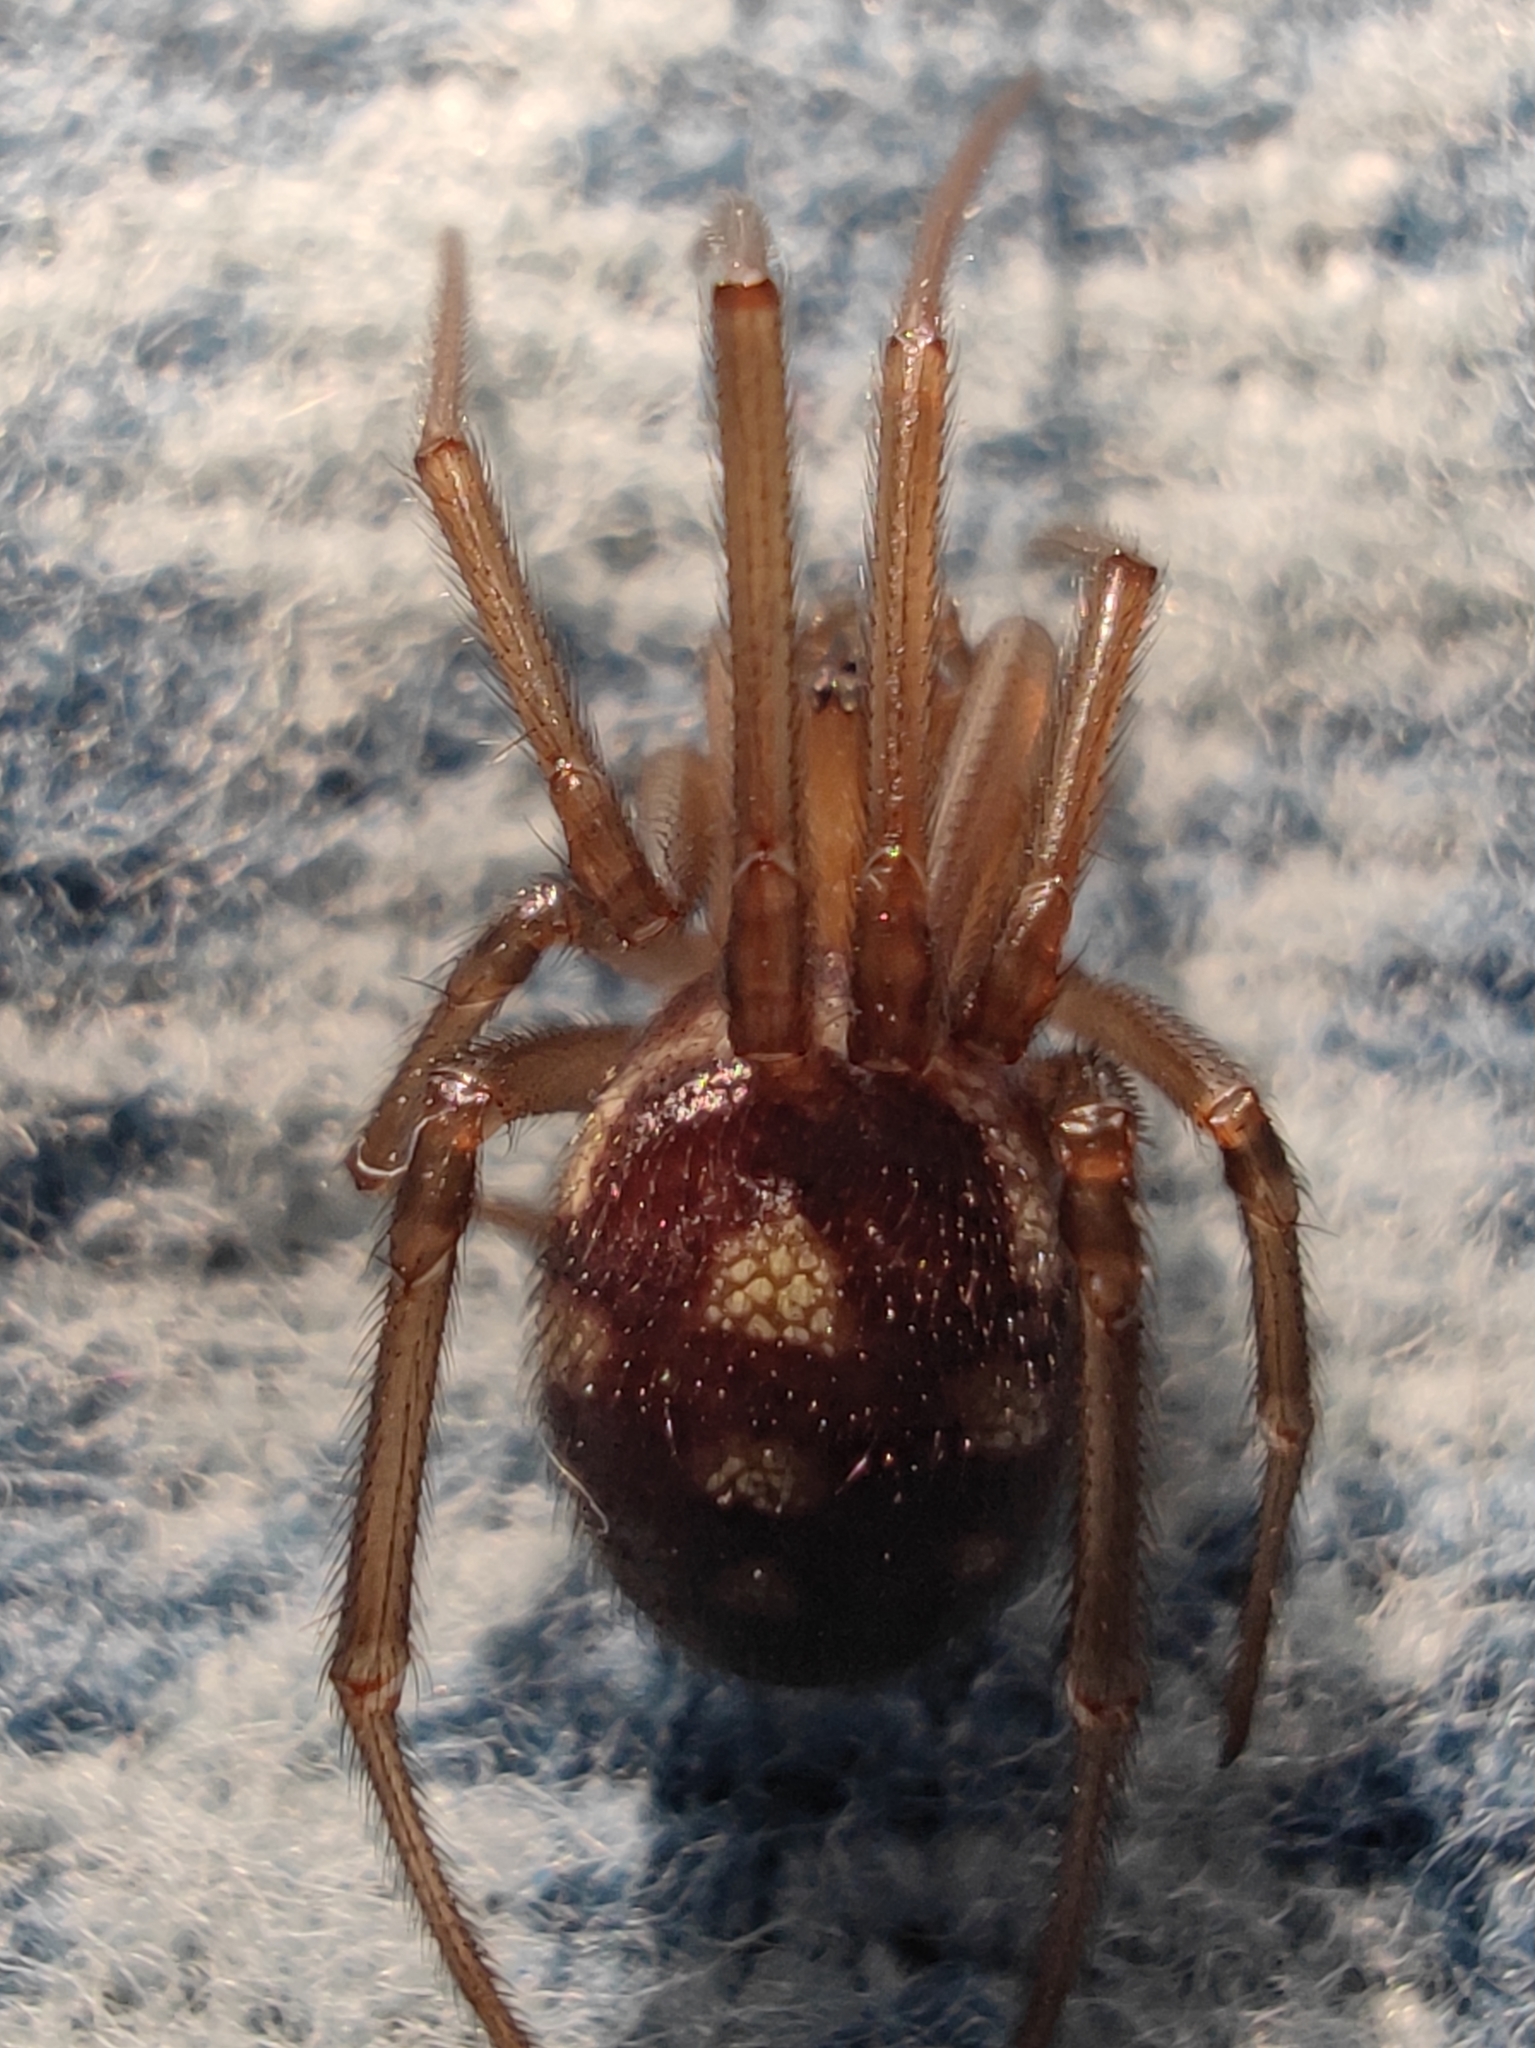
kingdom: Animalia
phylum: Arthropoda
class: Arachnida
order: Araneae
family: Theridiidae
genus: Steatoda
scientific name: Steatoda grossa
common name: False black widow
